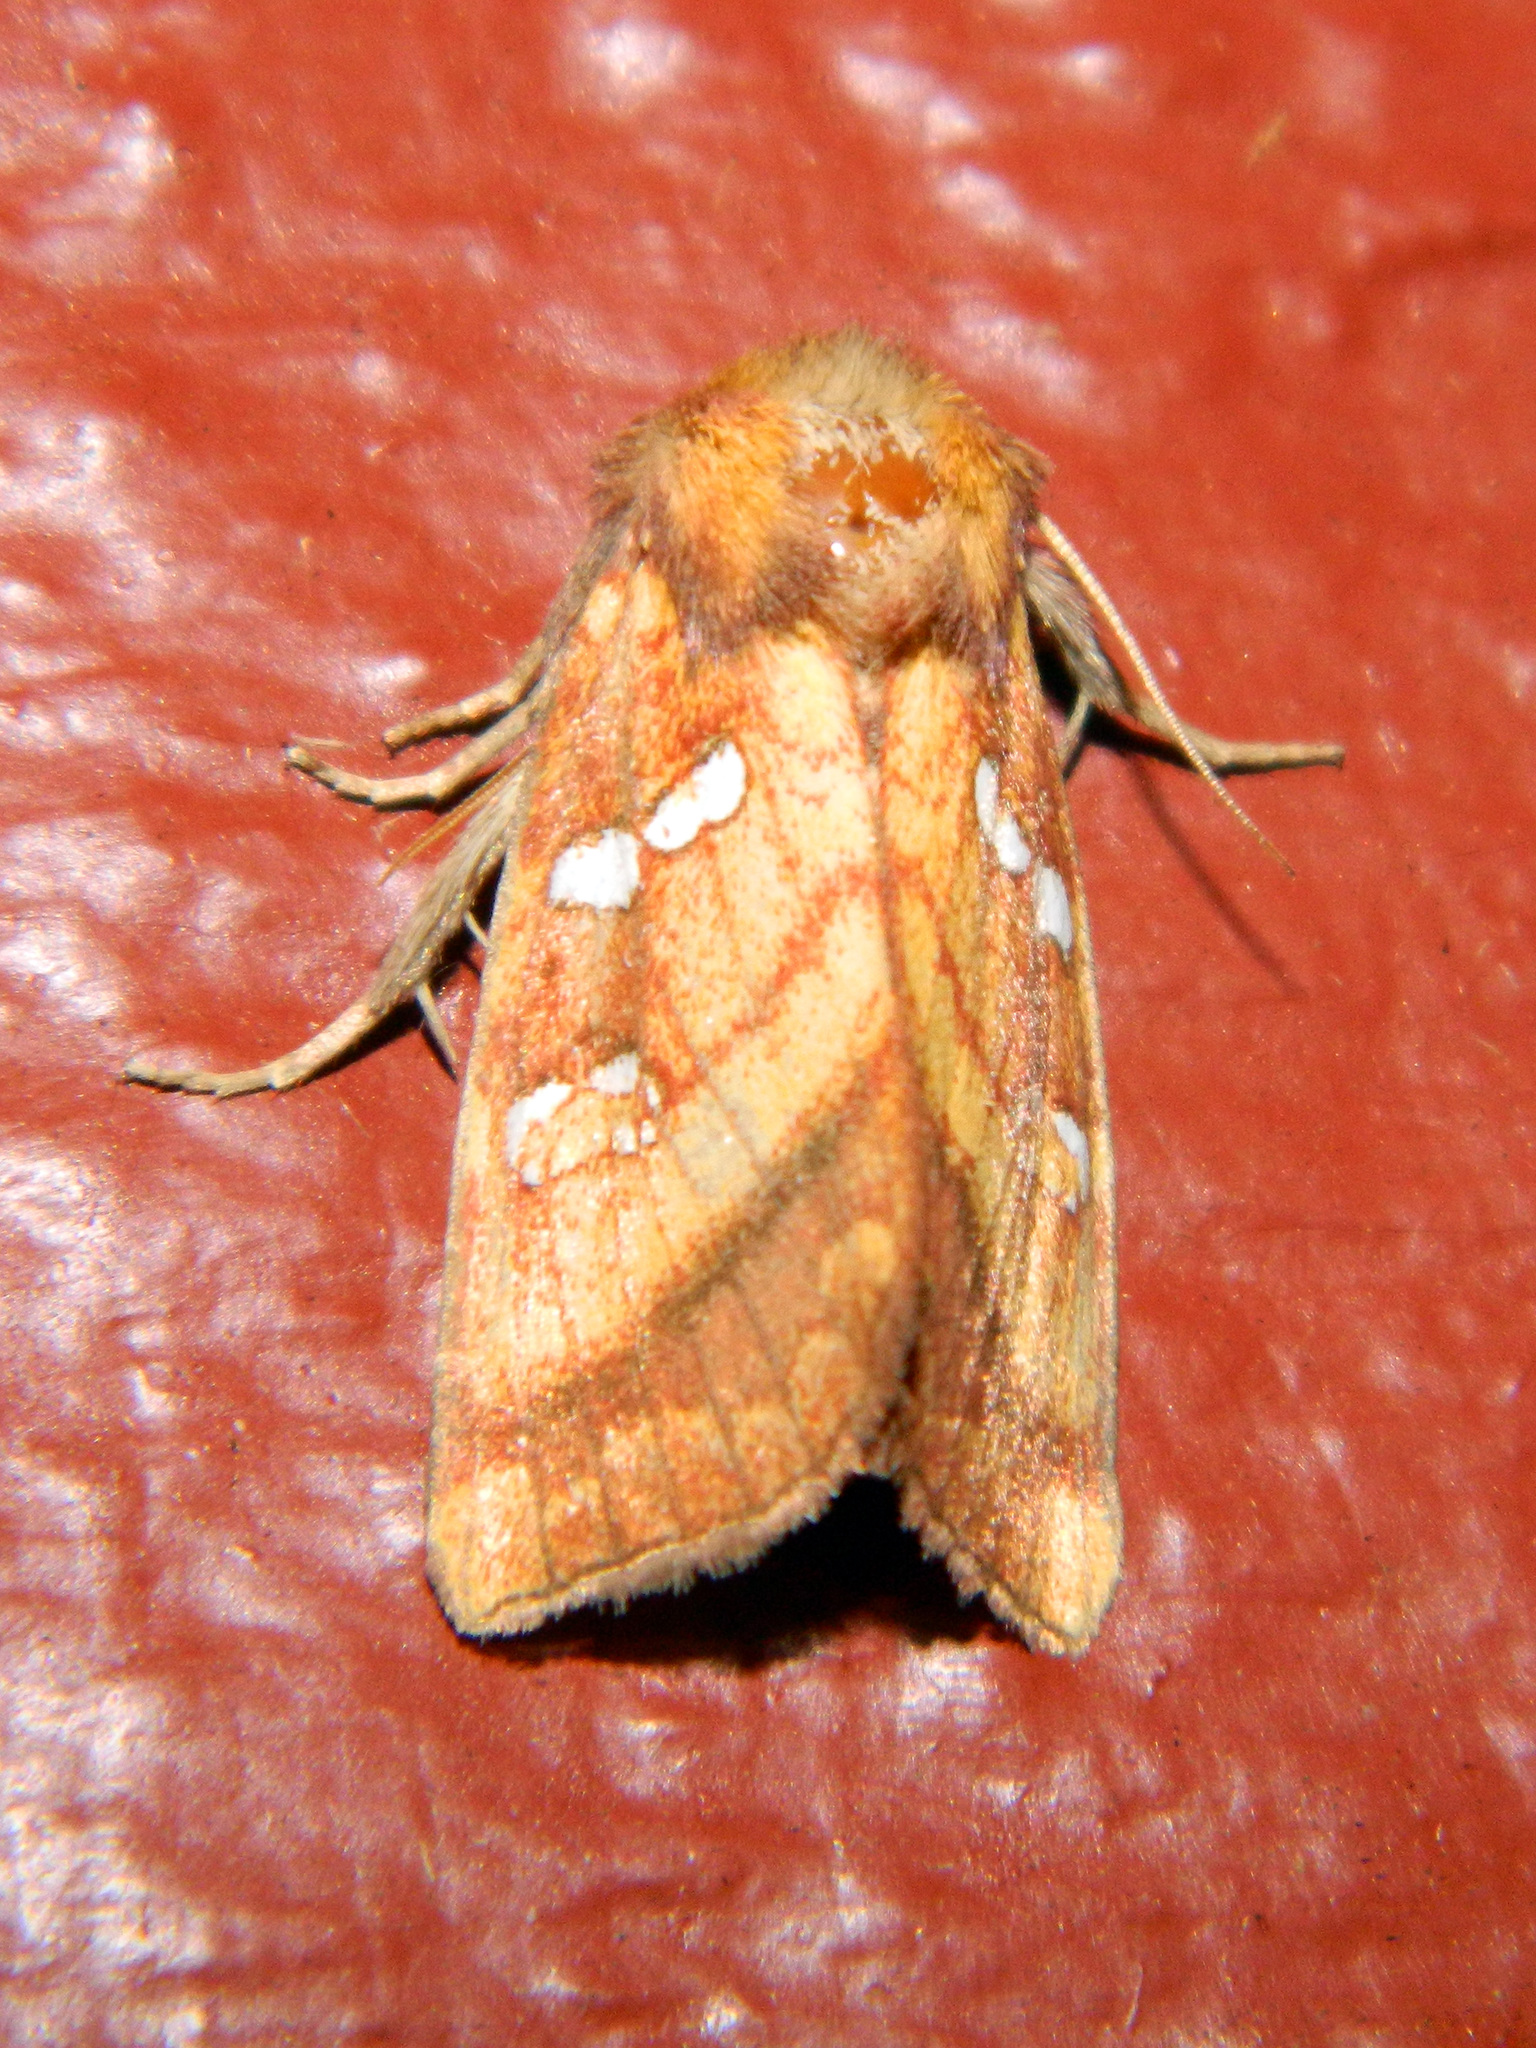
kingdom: Animalia
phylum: Arthropoda
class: Insecta
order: Lepidoptera
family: Noctuidae
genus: Papaipema
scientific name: Papaipema pterisii
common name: Bracken borer moth
